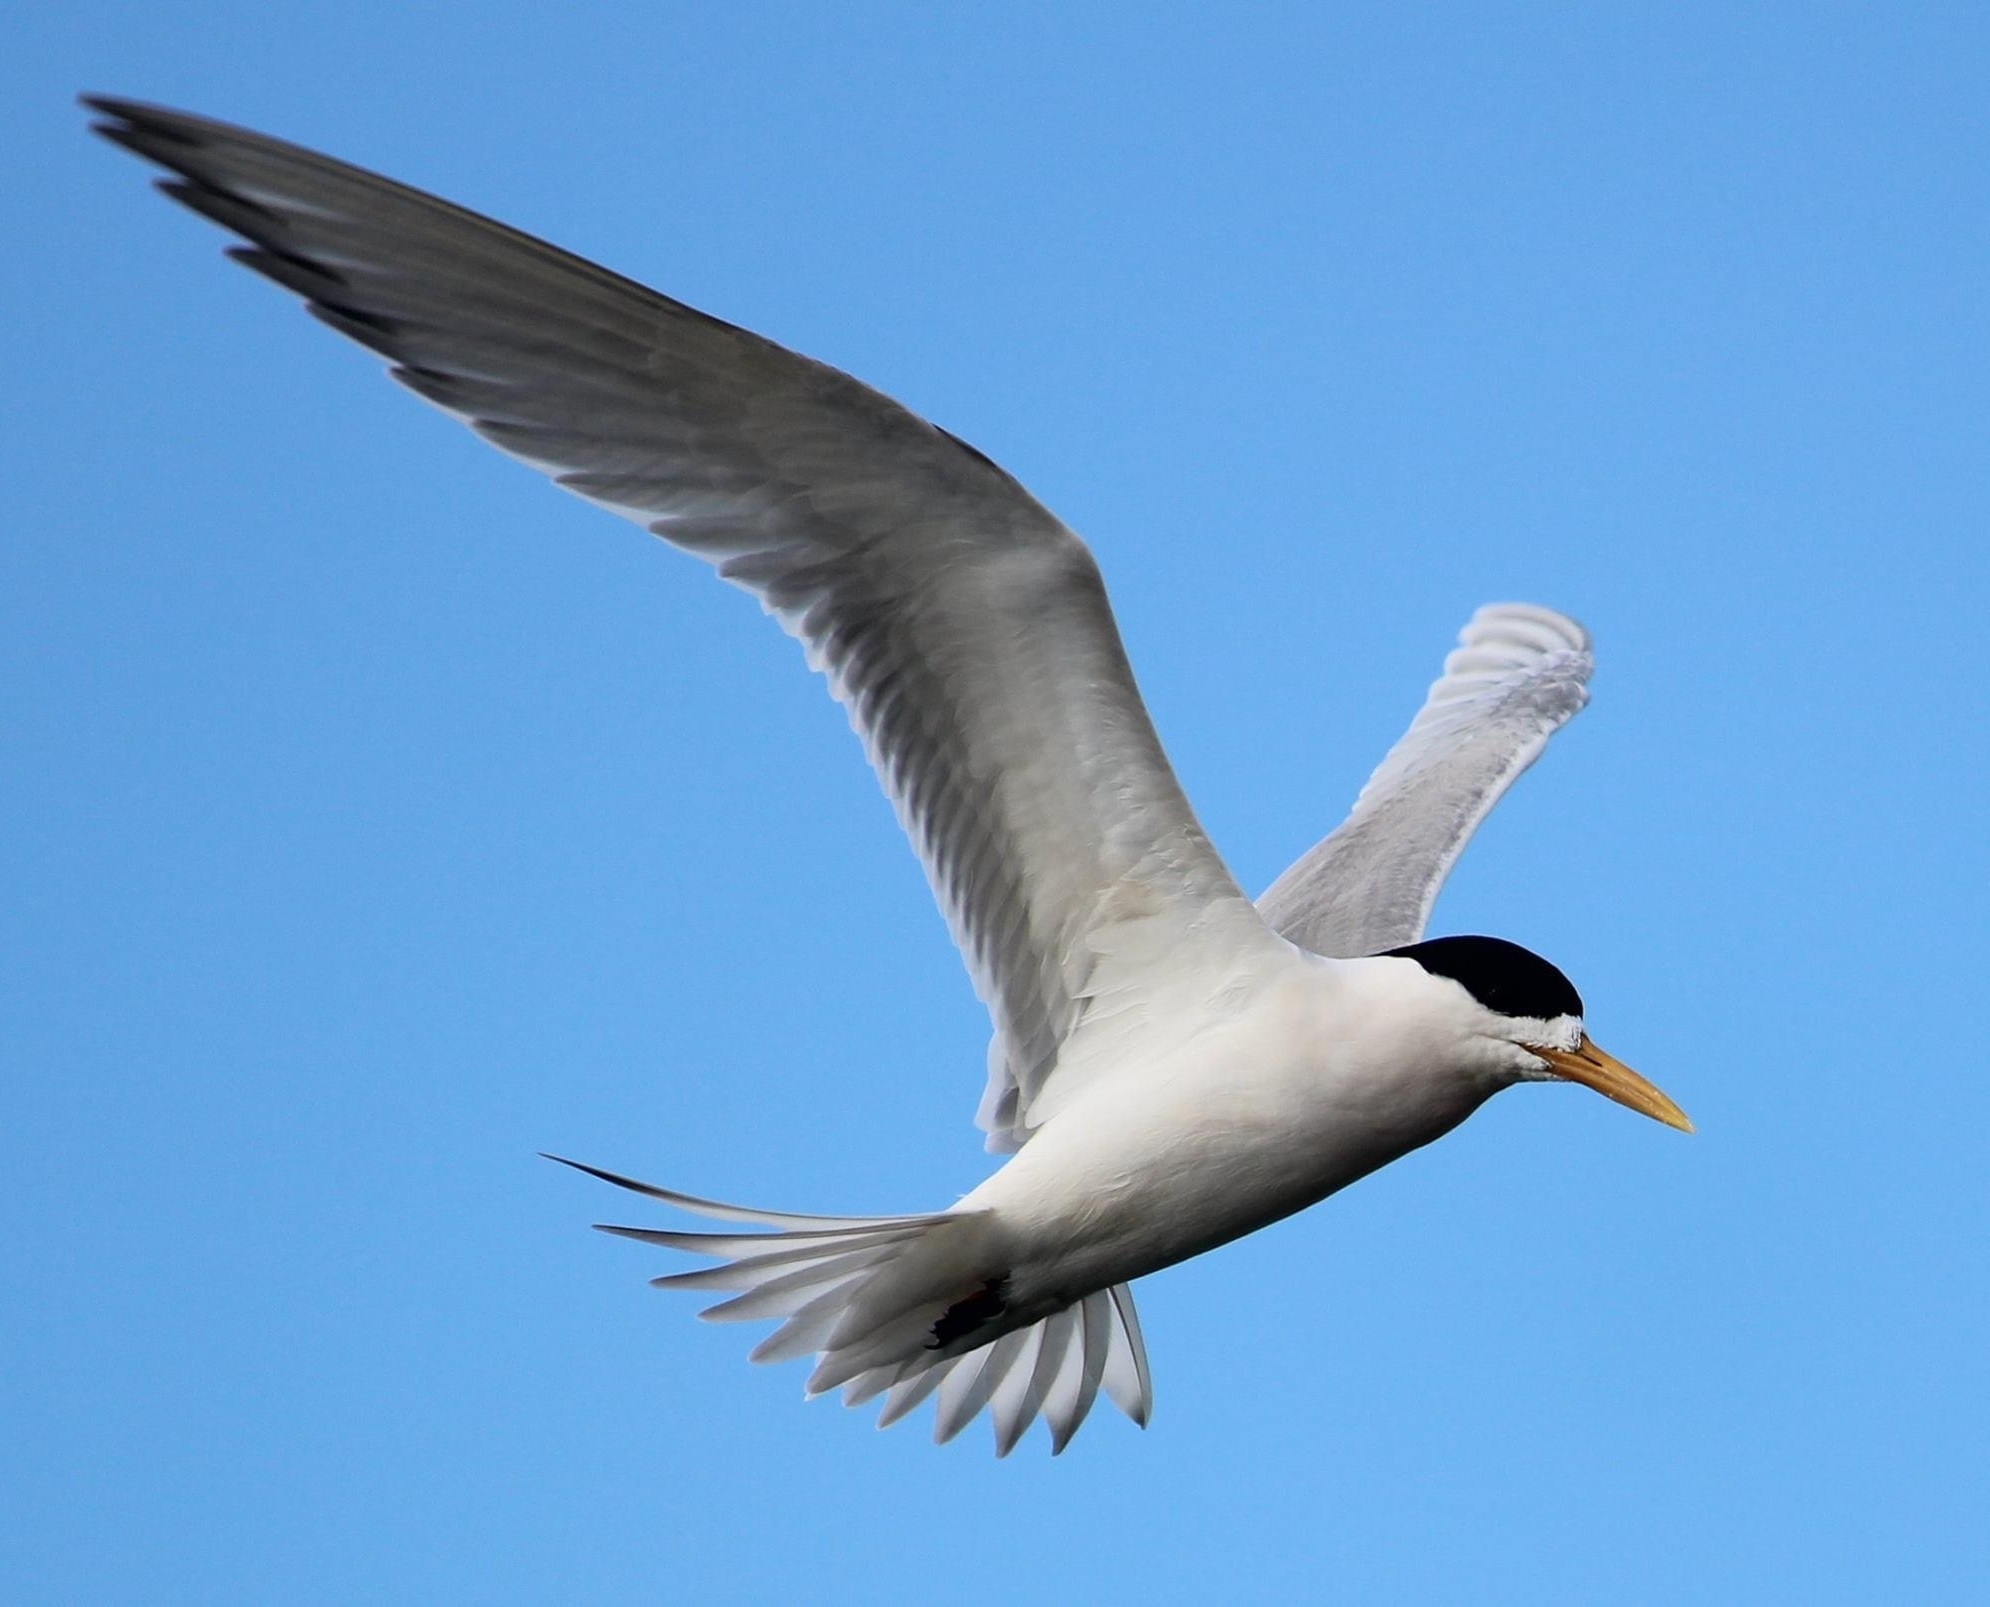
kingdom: Animalia
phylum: Chordata
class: Aves
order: Charadriiformes
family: Laridae
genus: Thalasseus
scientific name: Thalasseus bergii
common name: Greater crested tern
